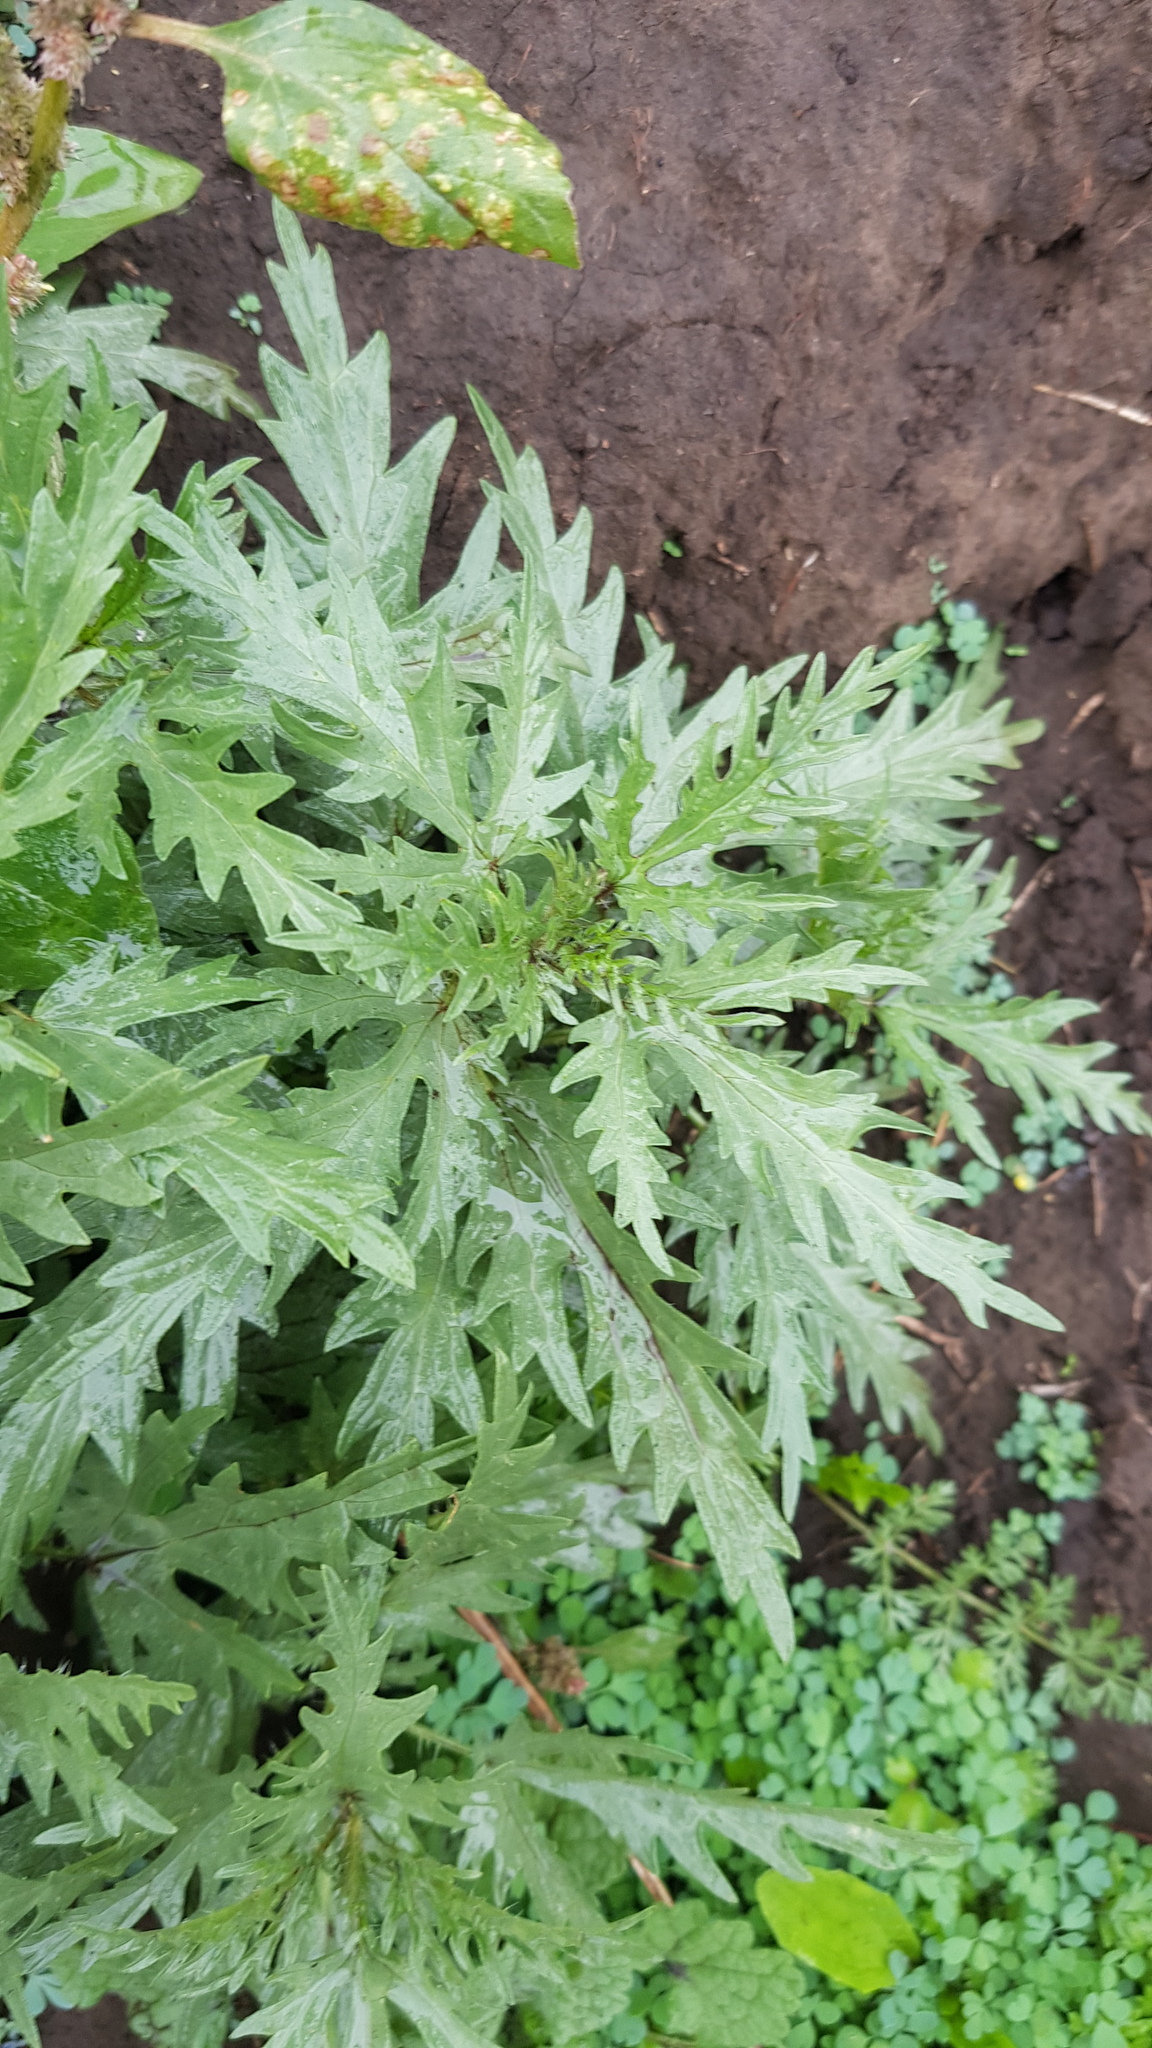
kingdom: Plantae
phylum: Tracheophyta
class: Magnoliopsida
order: Rosales
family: Urticaceae
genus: Urtica
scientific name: Urtica cannabina
